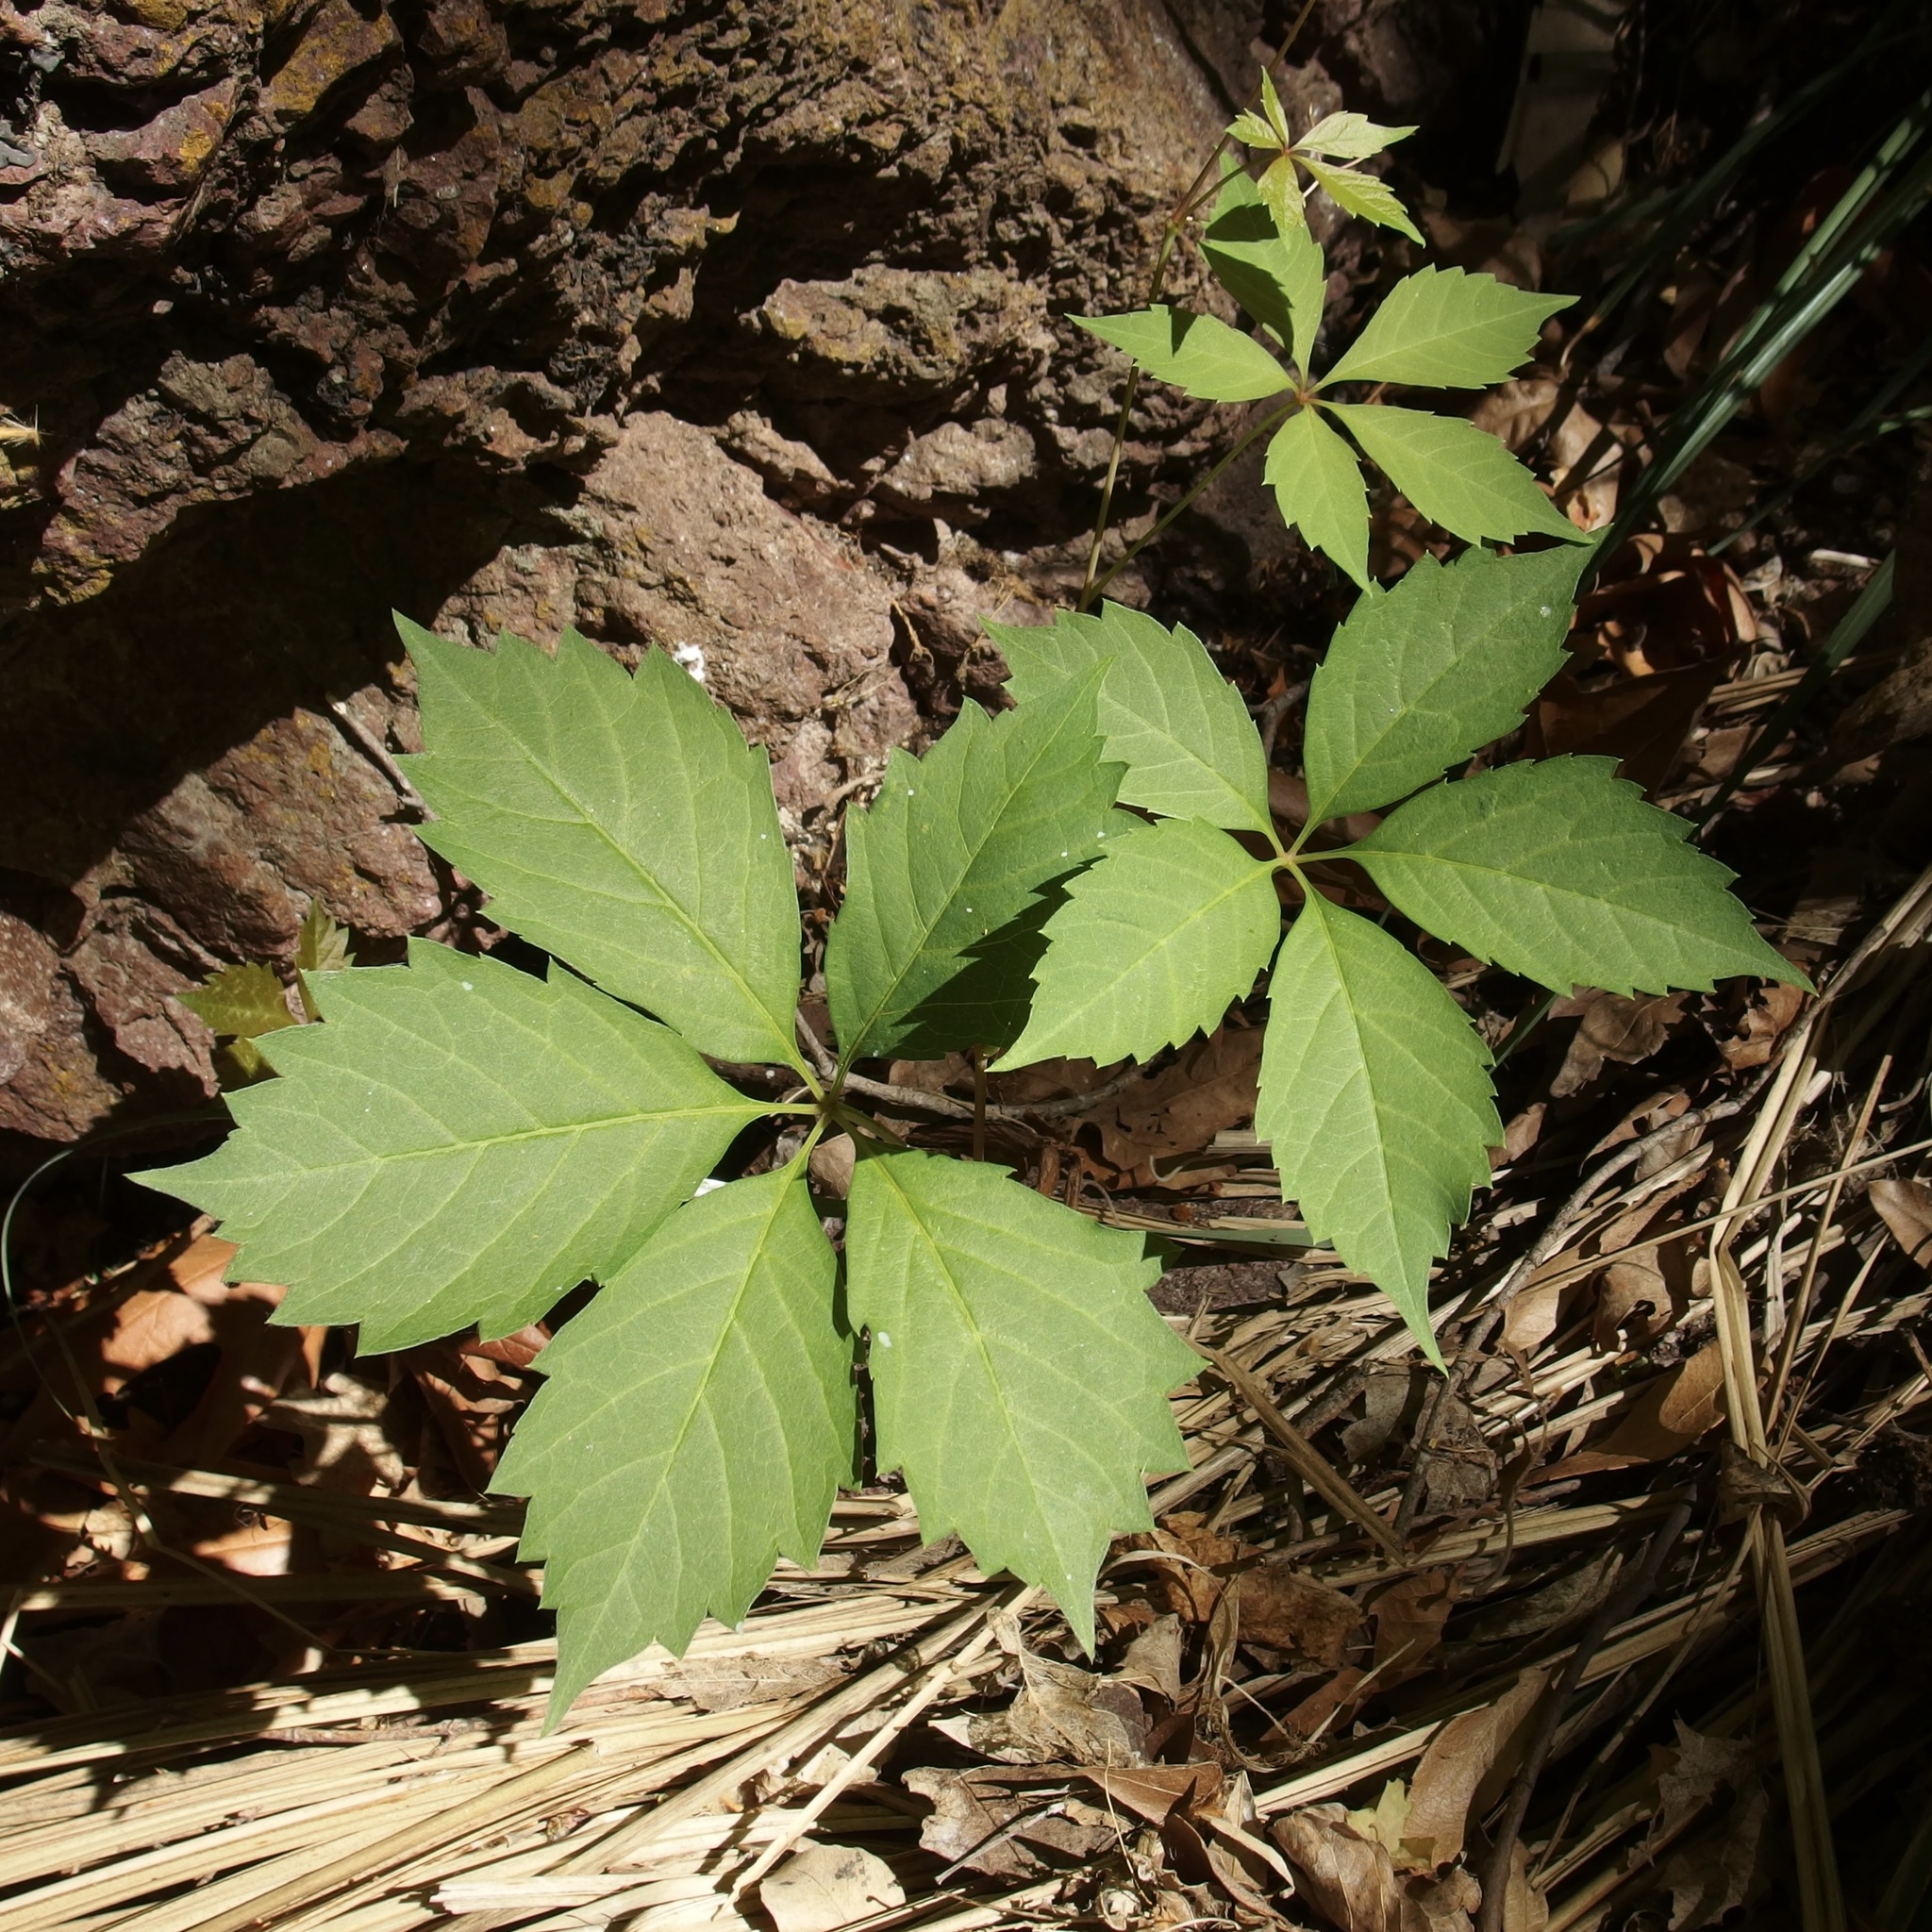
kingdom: Plantae
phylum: Tracheophyta
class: Magnoliopsida
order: Vitales
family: Vitaceae
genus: Parthenocissus
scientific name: Parthenocissus inserta
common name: False virginia-creeper
